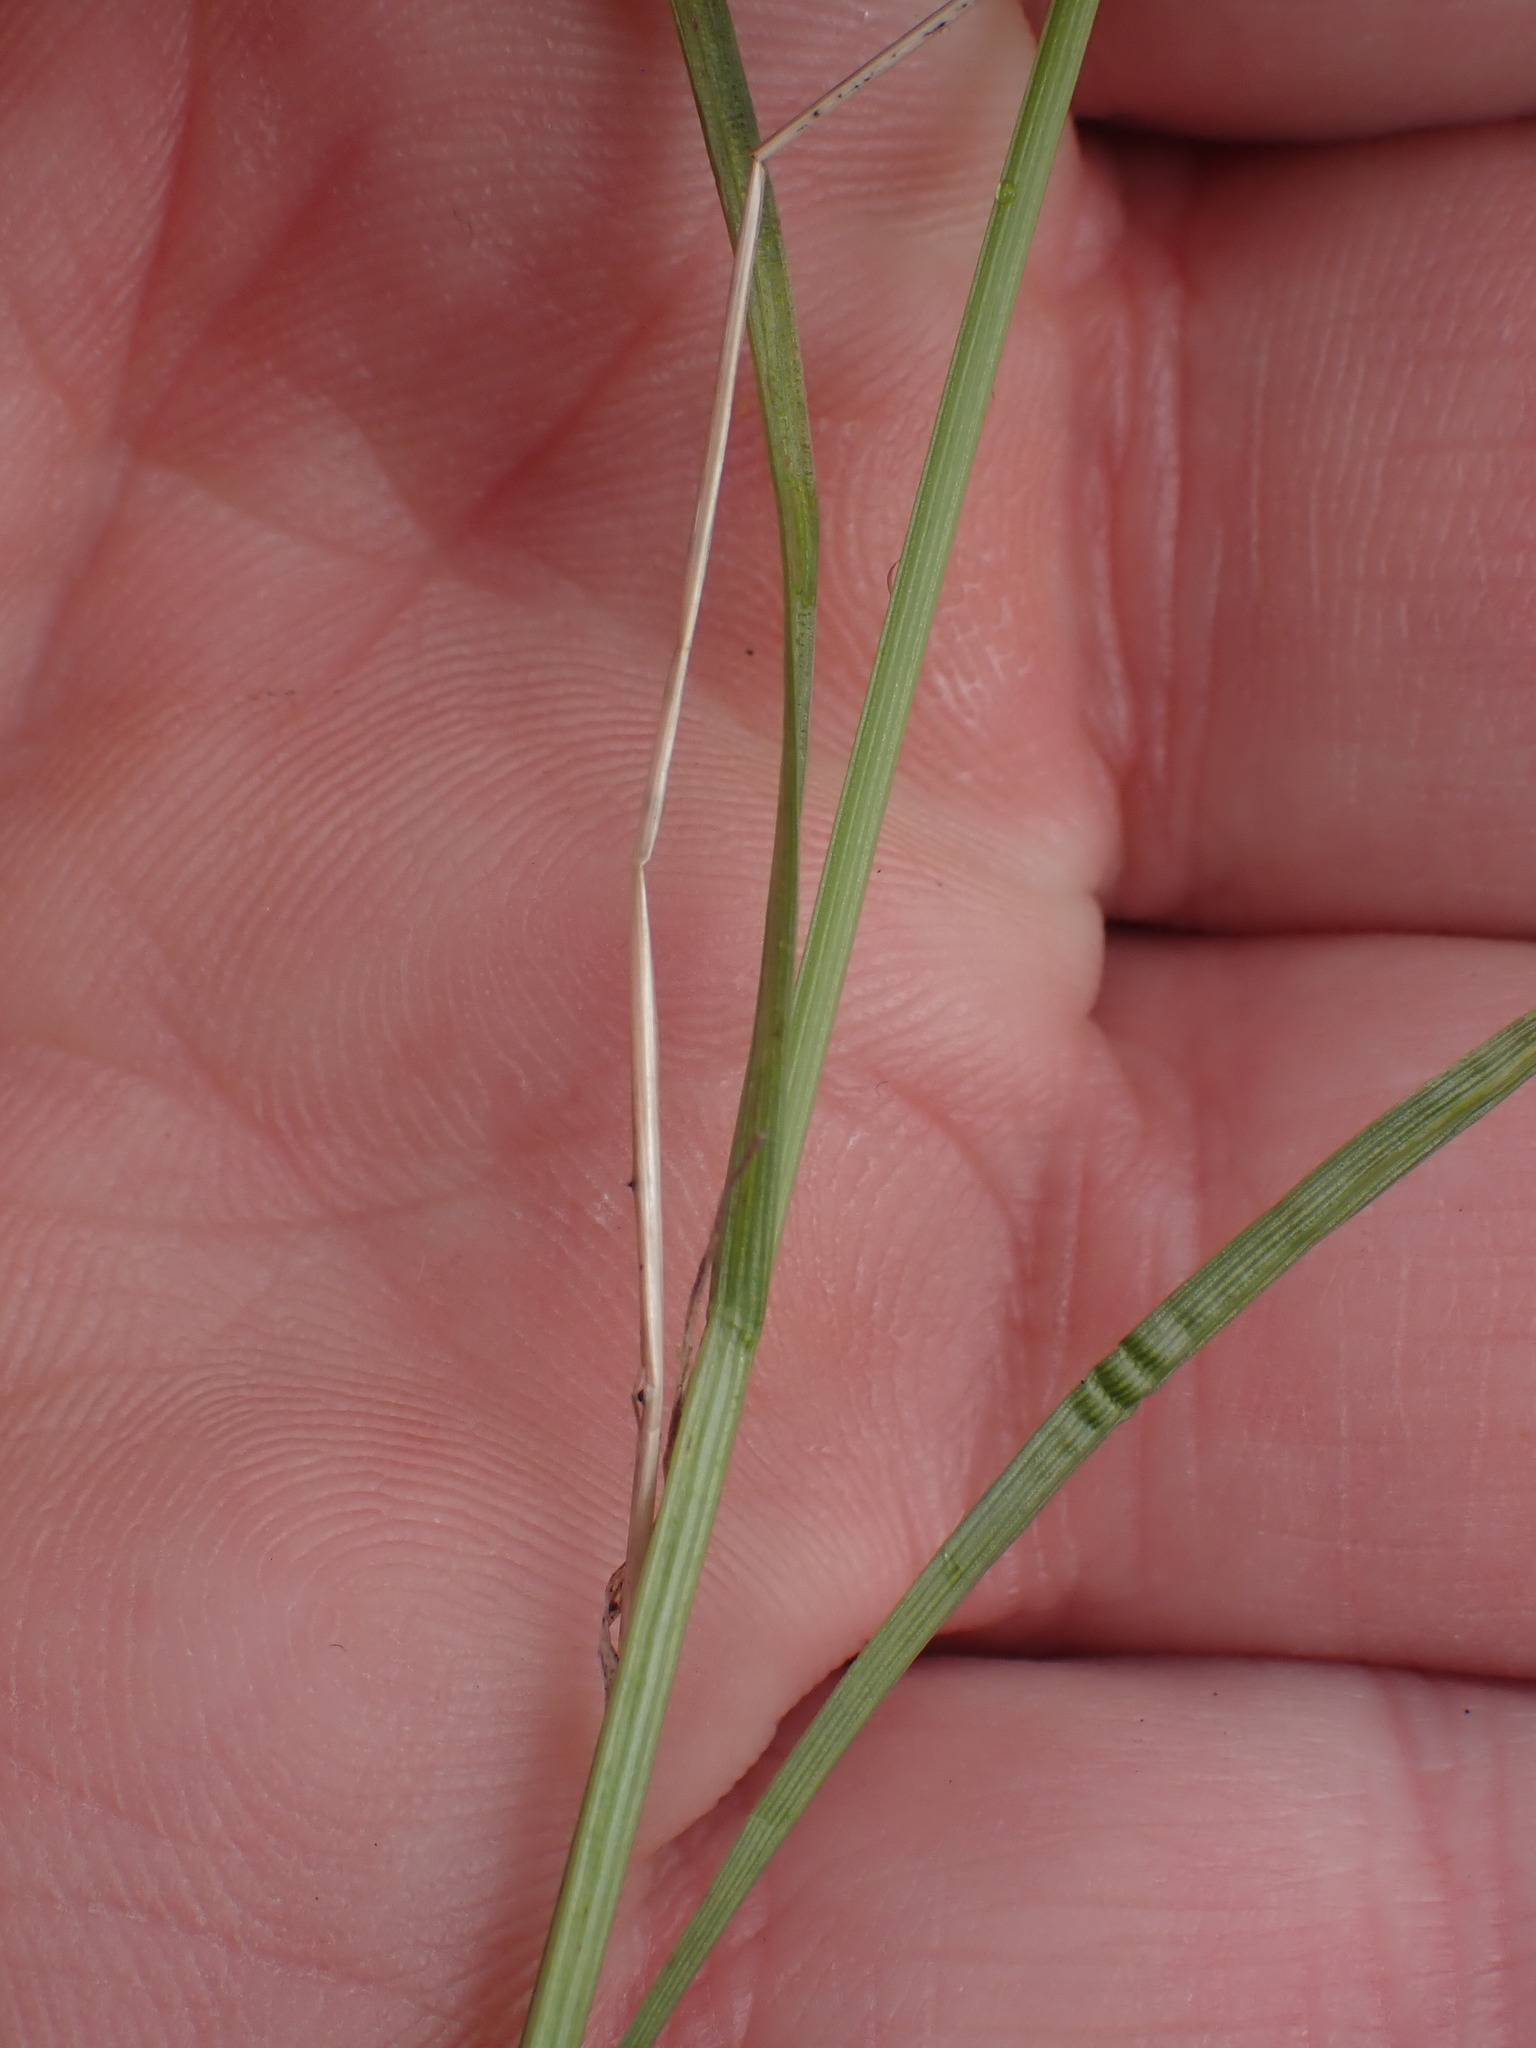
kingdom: Plantae
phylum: Tracheophyta
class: Liliopsida
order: Poales
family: Cyperaceae
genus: Carex
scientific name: Carex inops
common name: Long-stolon sedge
